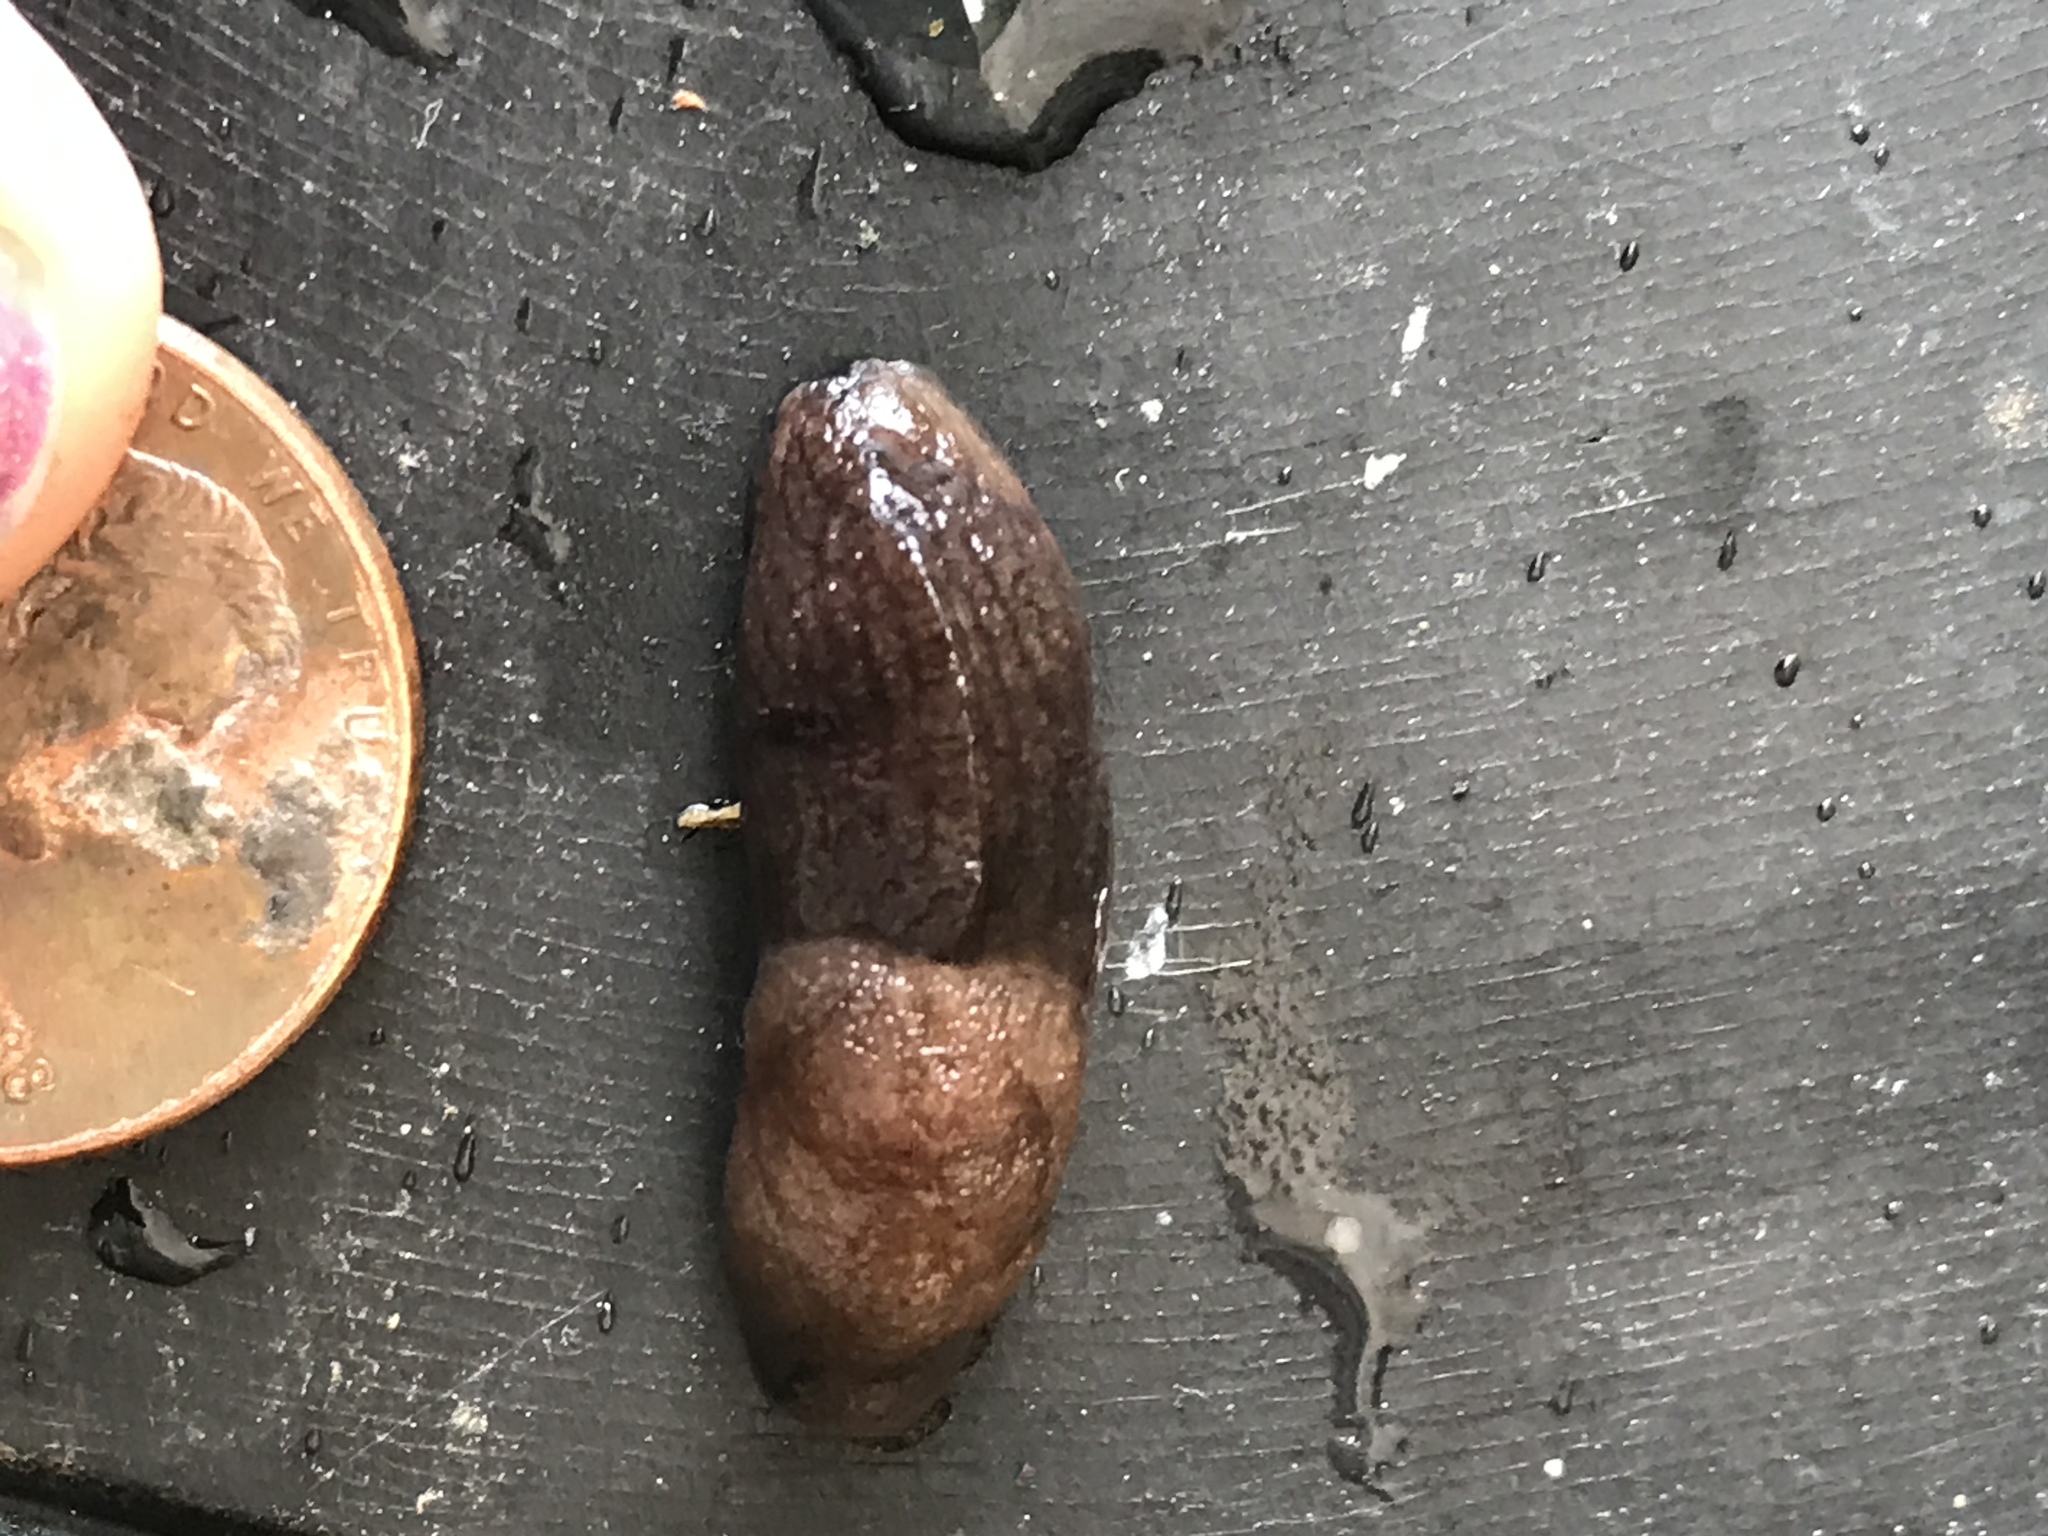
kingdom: Animalia
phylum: Mollusca
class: Gastropoda
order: Stylommatophora
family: Milacidae
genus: Milax
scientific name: Milax gagates
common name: Greenhouse slug
